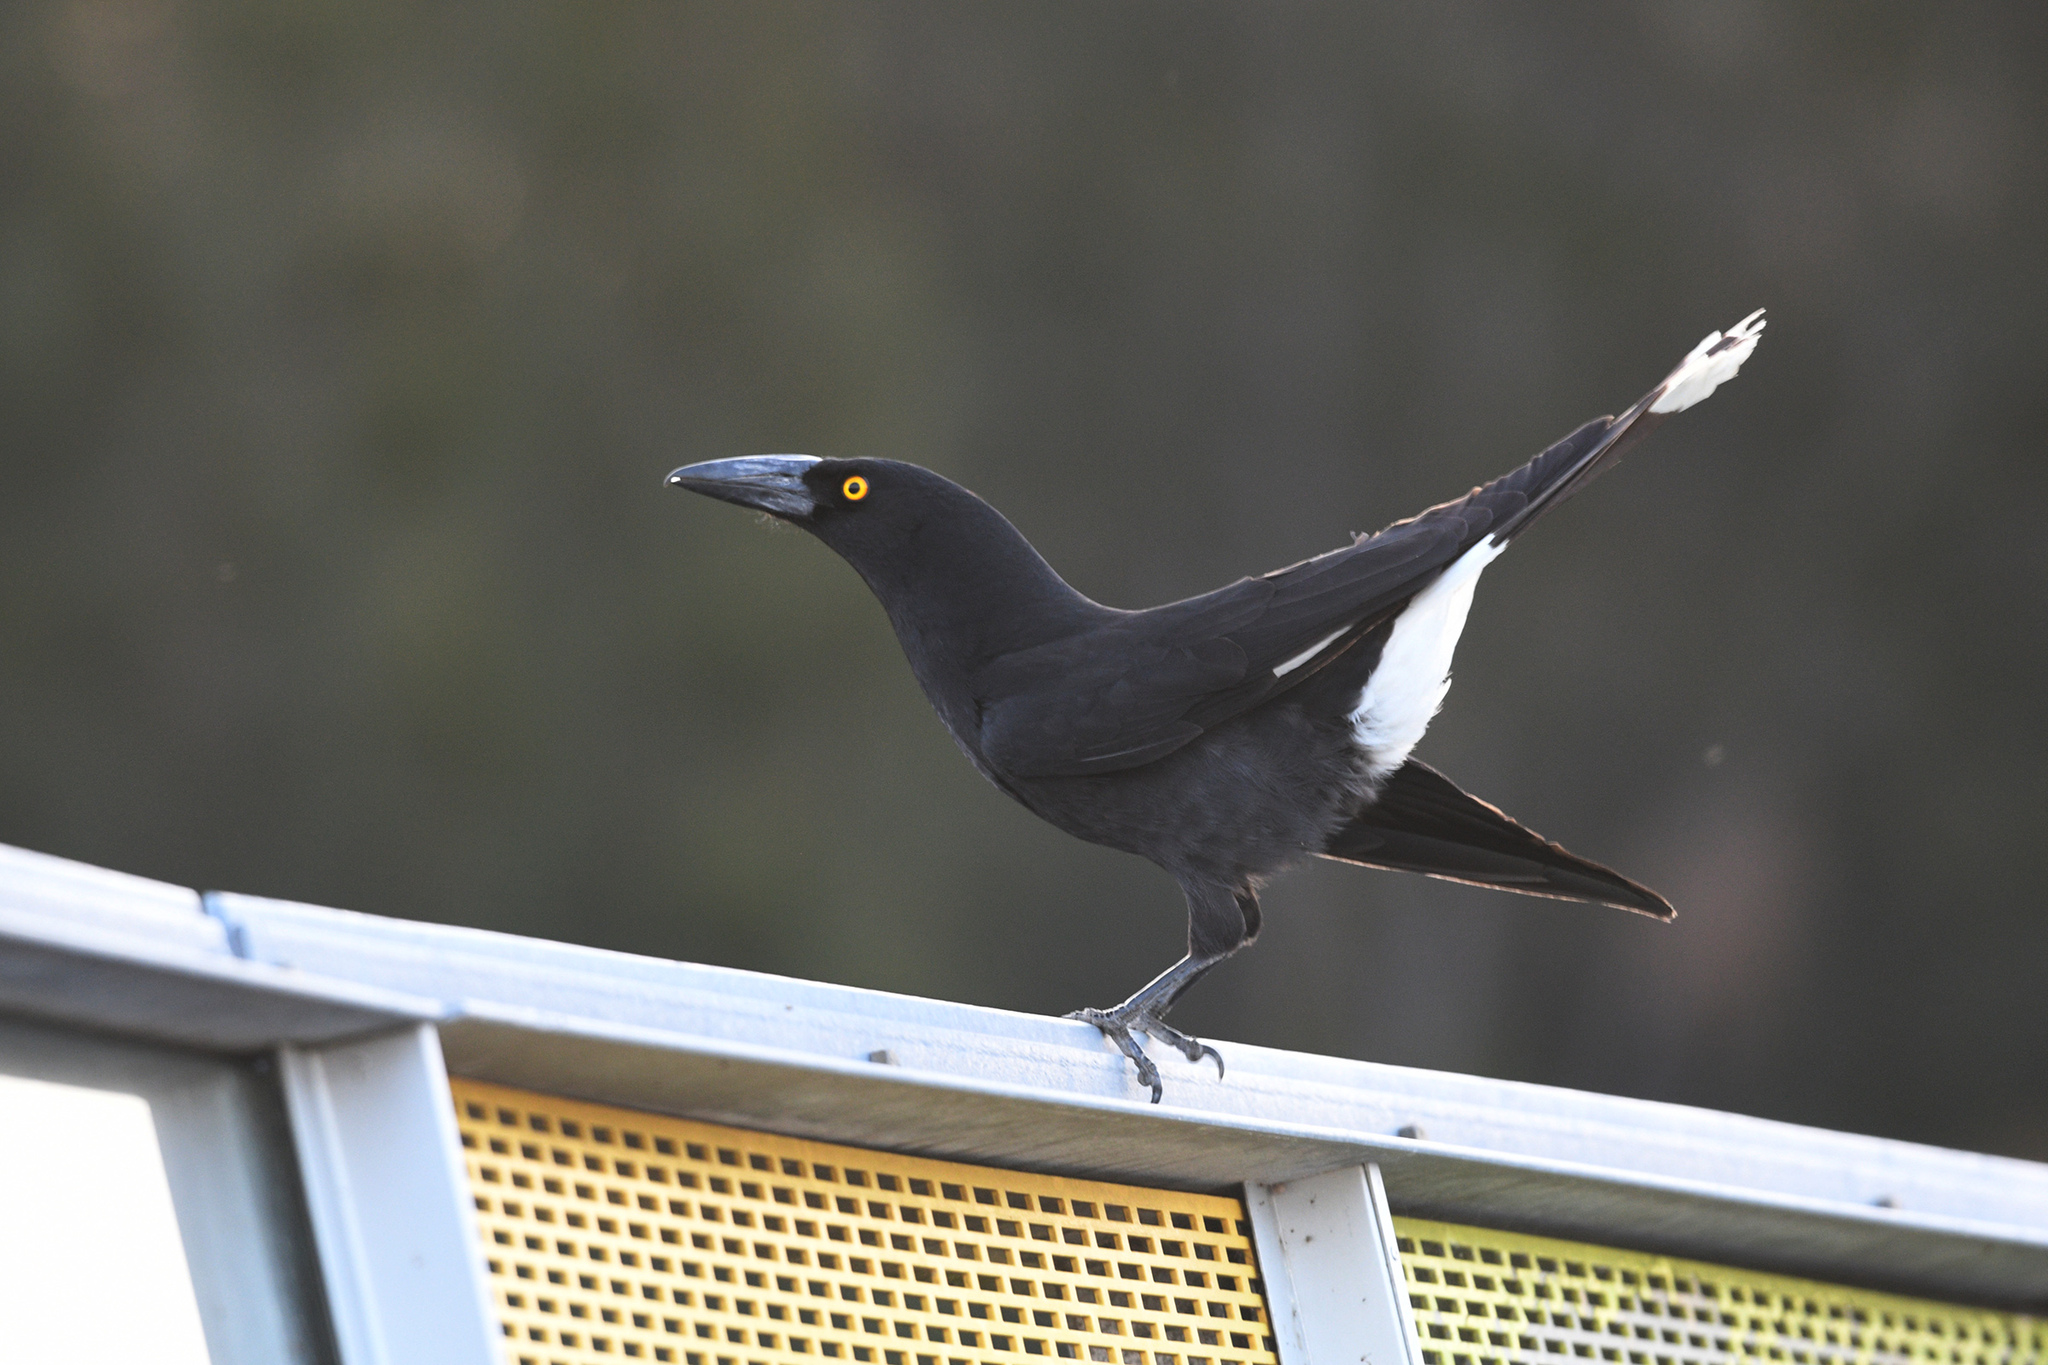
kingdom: Animalia
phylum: Chordata
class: Aves
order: Passeriformes
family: Cracticidae
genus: Strepera
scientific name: Strepera graculina
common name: Pied currawong
